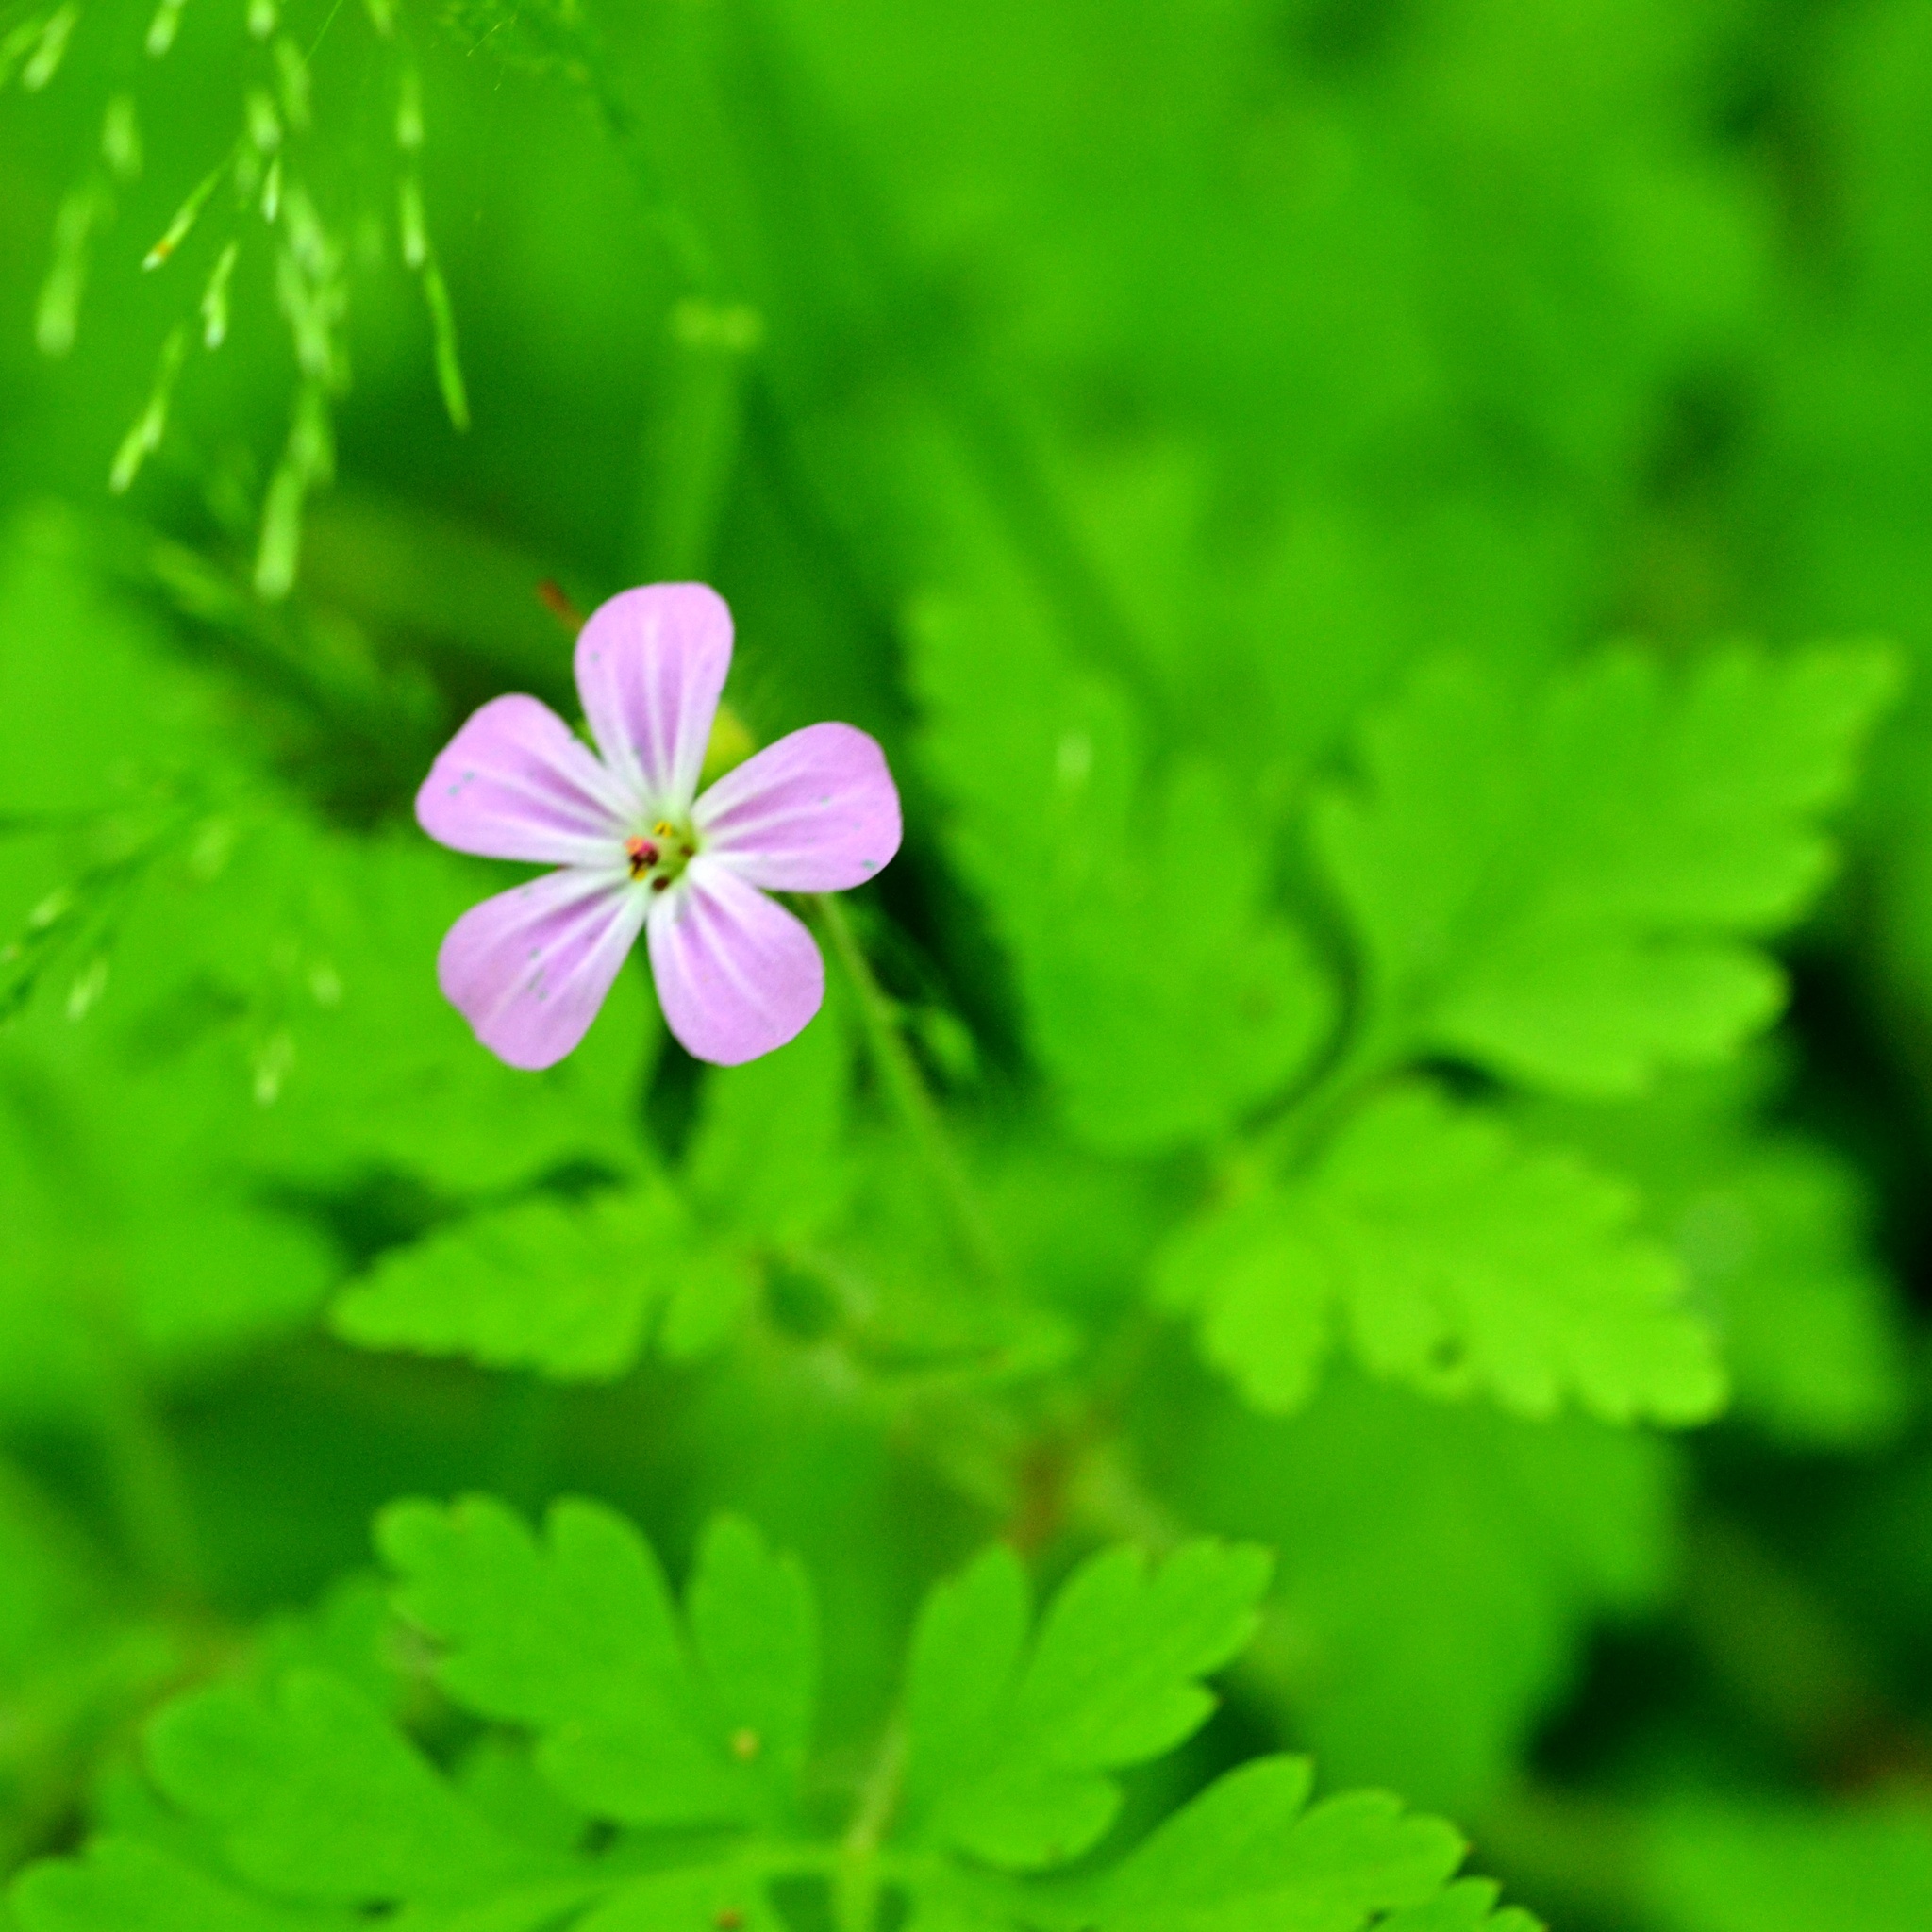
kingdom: Plantae
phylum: Tracheophyta
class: Magnoliopsida
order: Geraniales
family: Geraniaceae
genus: Geranium
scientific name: Geranium robertianum
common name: Herb-robert
